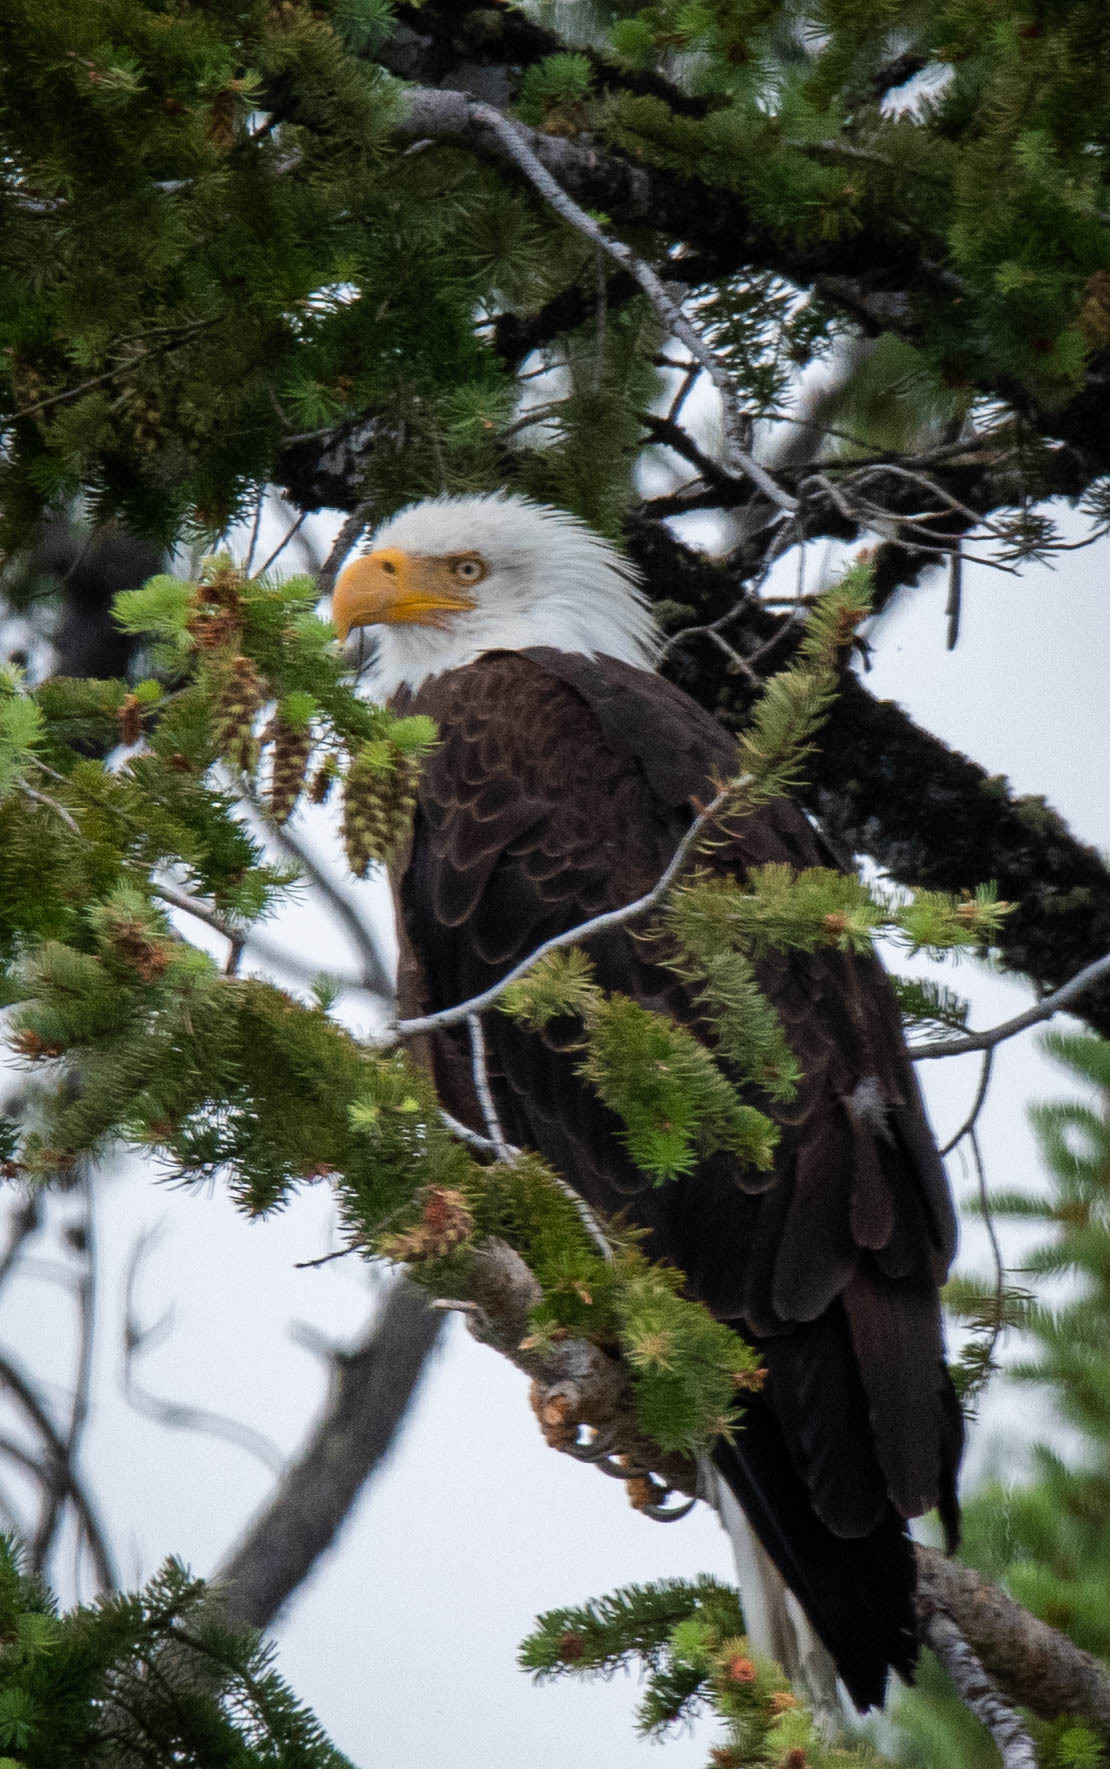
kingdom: Animalia
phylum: Chordata
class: Aves
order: Accipitriformes
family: Accipitridae
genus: Haliaeetus
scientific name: Haliaeetus leucocephalus
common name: Bald eagle
